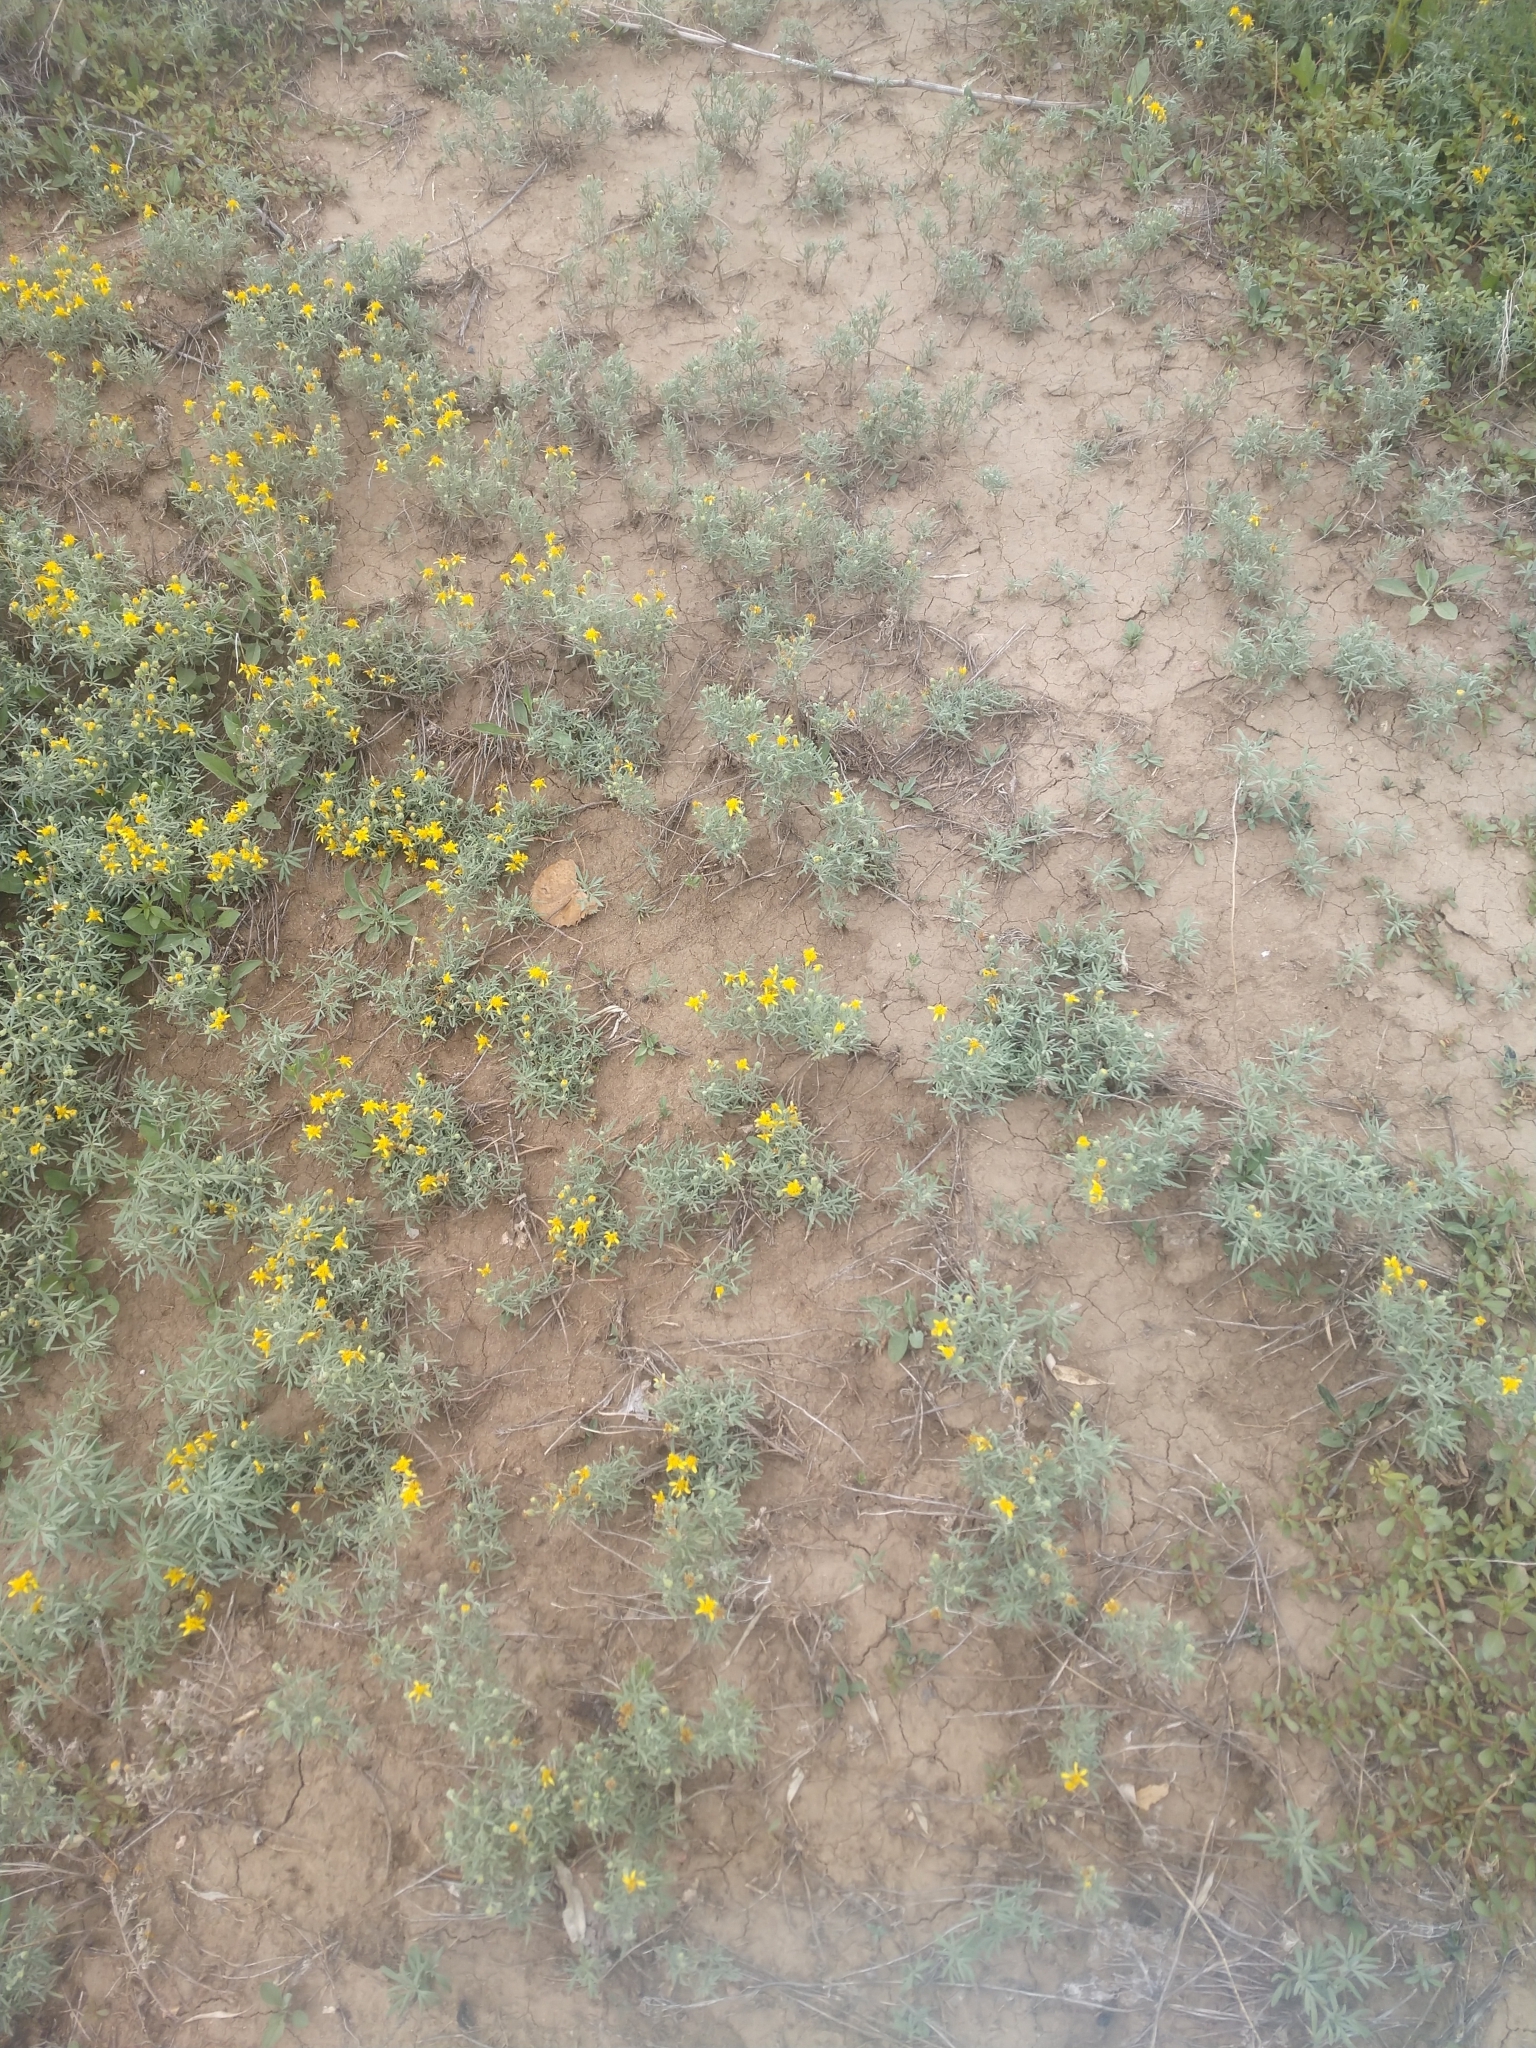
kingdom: Plantae
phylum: Tracheophyta
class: Magnoliopsida
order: Asterales
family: Asteraceae
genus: Picradeniopsis
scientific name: Picradeniopsis oppositifolia
